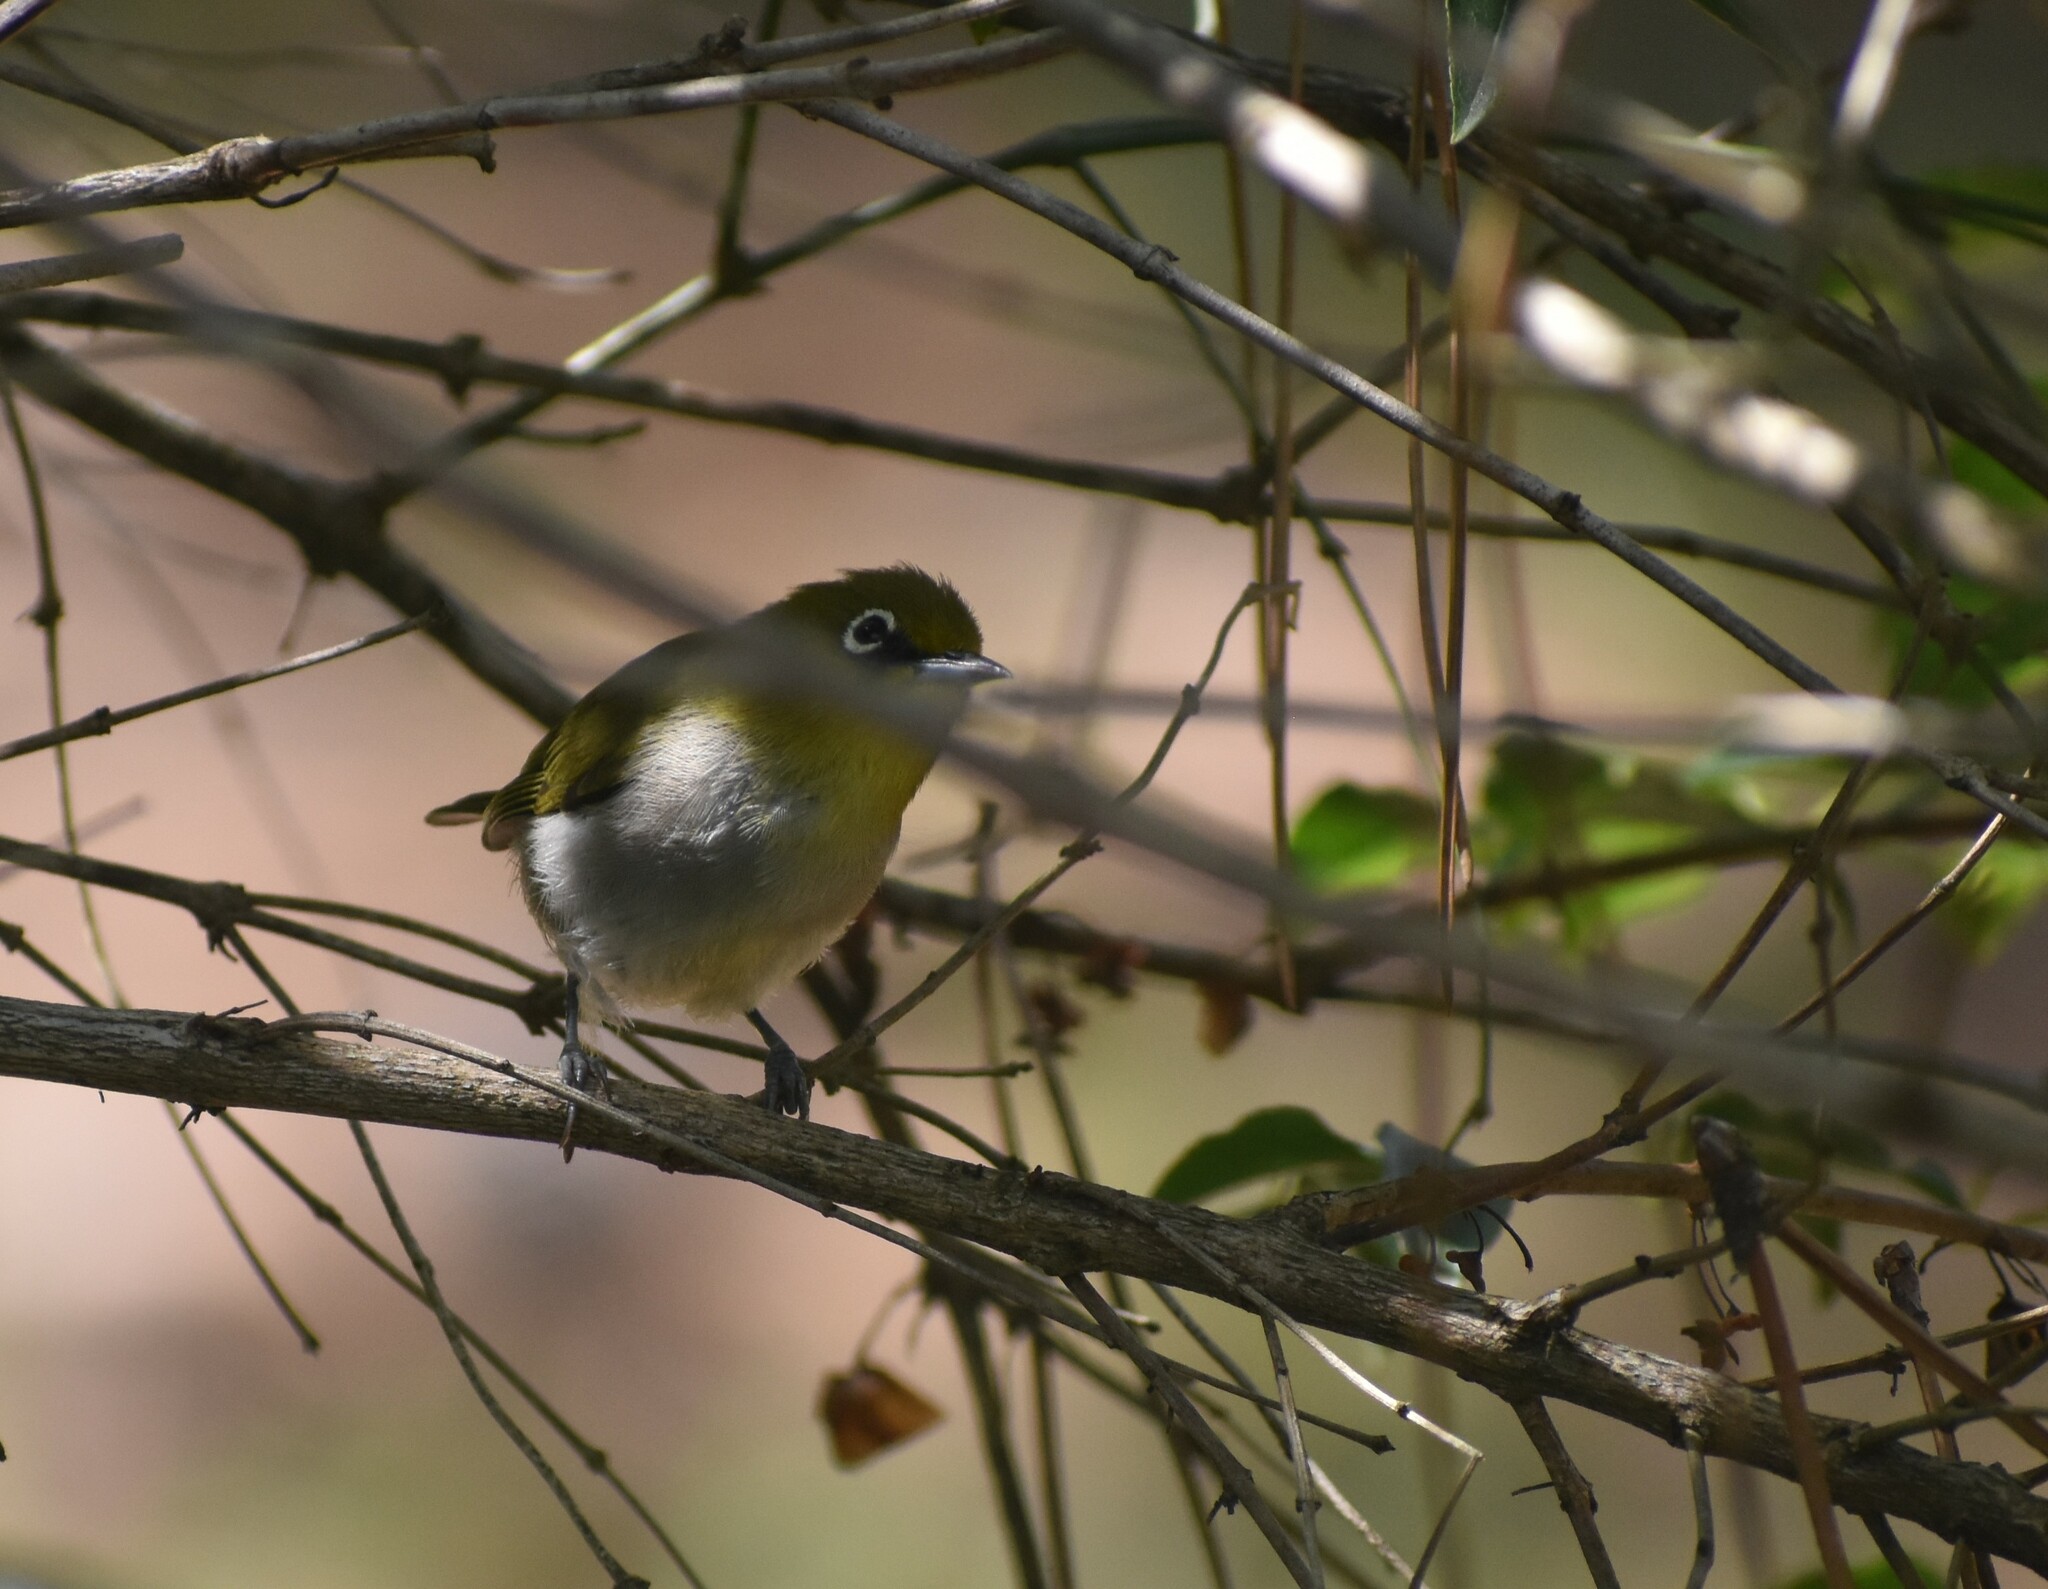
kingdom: Animalia
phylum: Chordata
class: Aves
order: Passeriformes
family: Zosteropidae
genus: Zosterops
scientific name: Zosterops virens
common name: Cape white-eye
